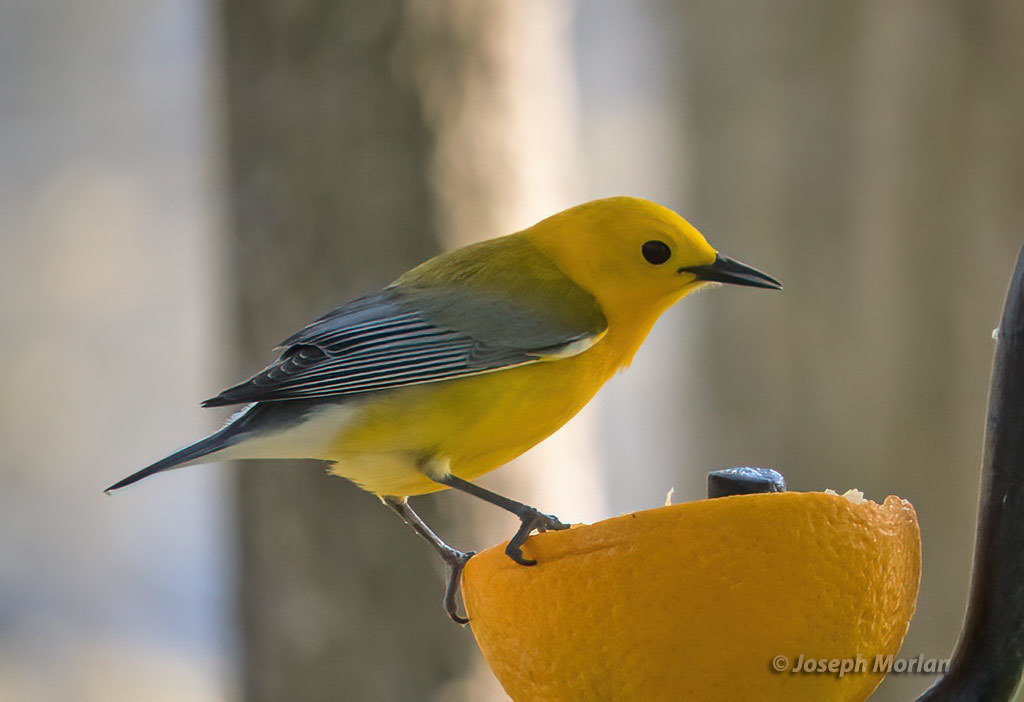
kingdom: Animalia
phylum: Chordata
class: Aves
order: Passeriformes
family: Parulidae
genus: Protonotaria
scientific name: Protonotaria citrea
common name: Prothonotary warbler
